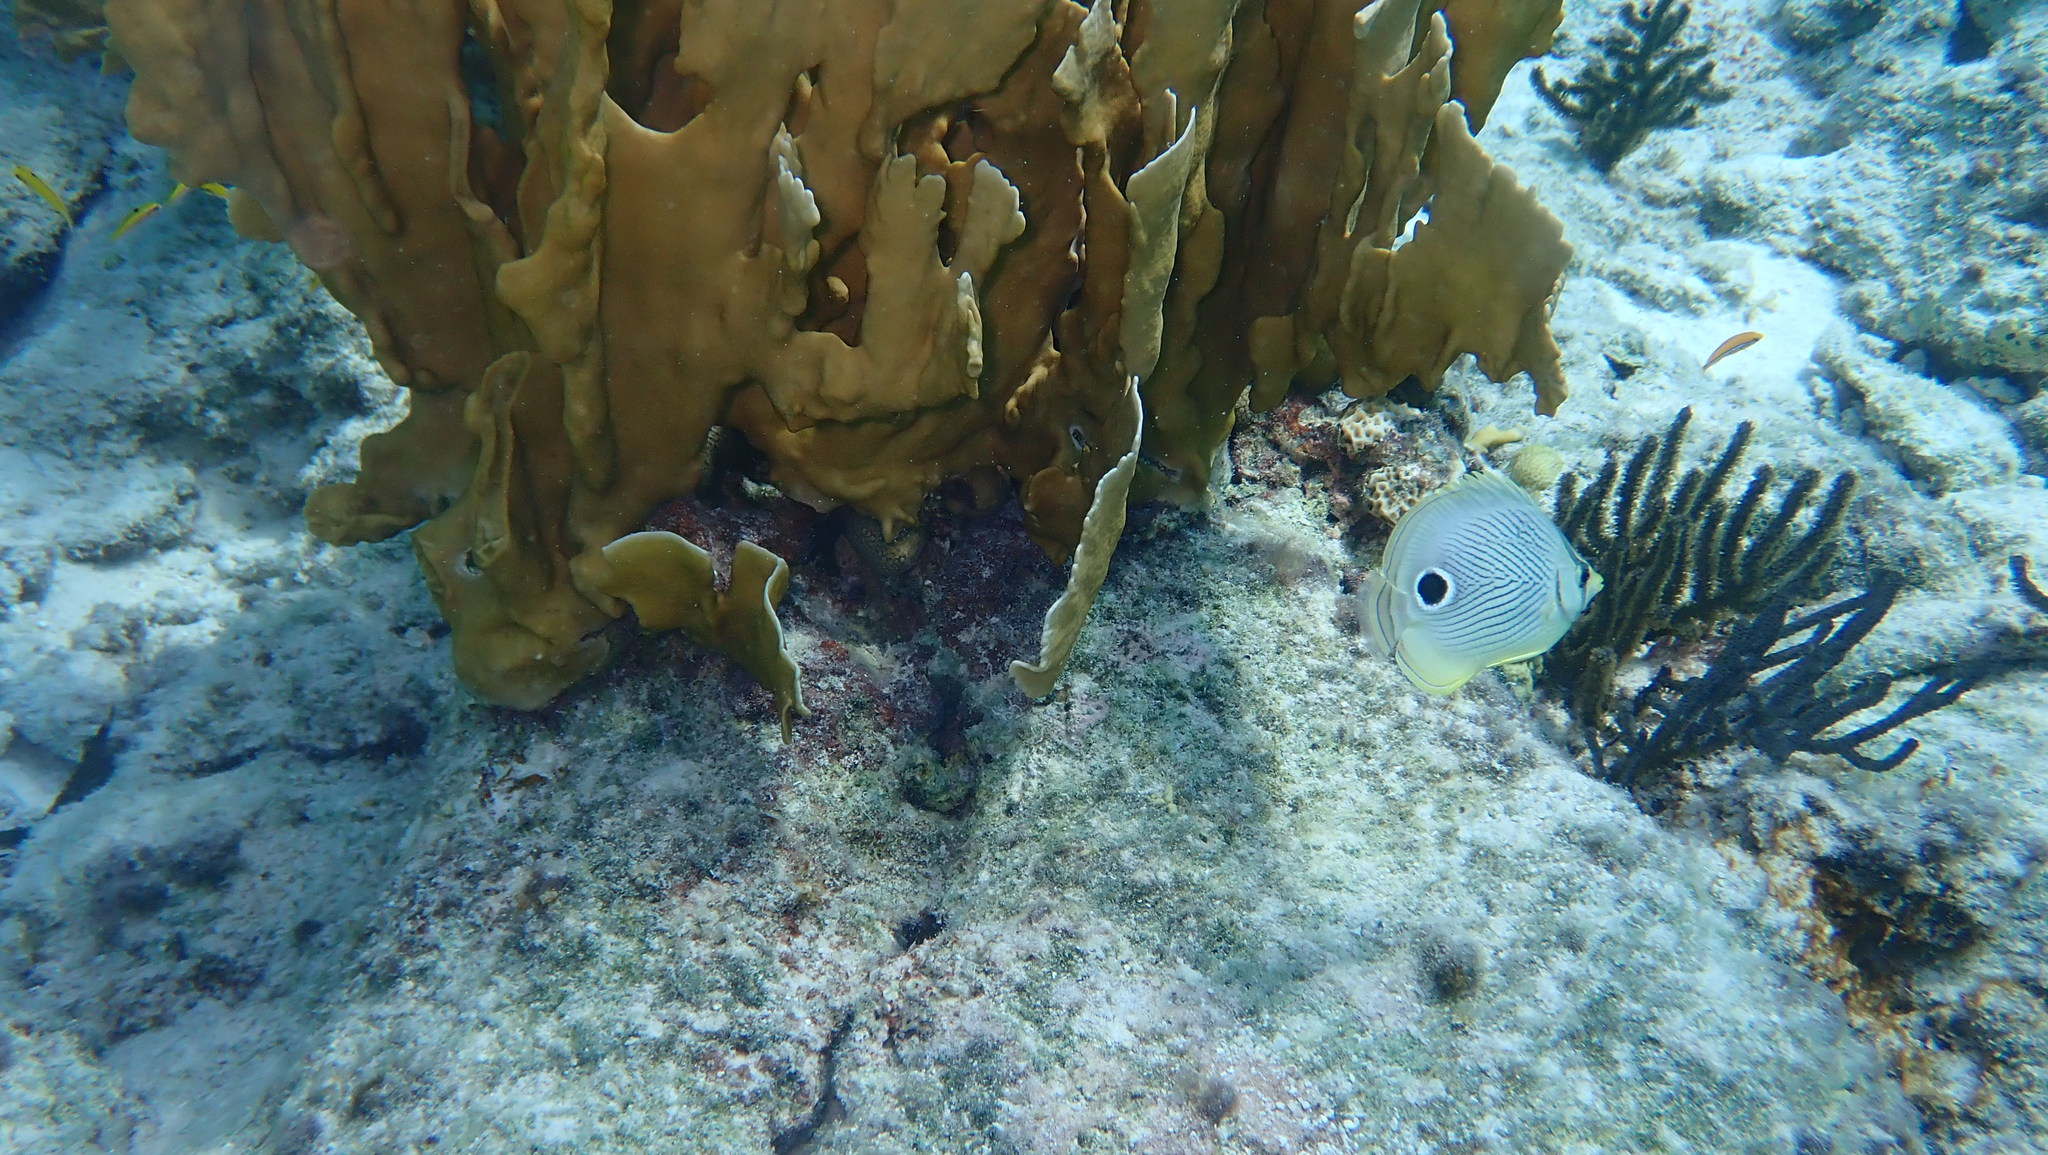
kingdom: Animalia
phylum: Chordata
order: Perciformes
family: Chaetodontidae
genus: Chaetodon
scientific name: Chaetodon capistratus
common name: Kete
